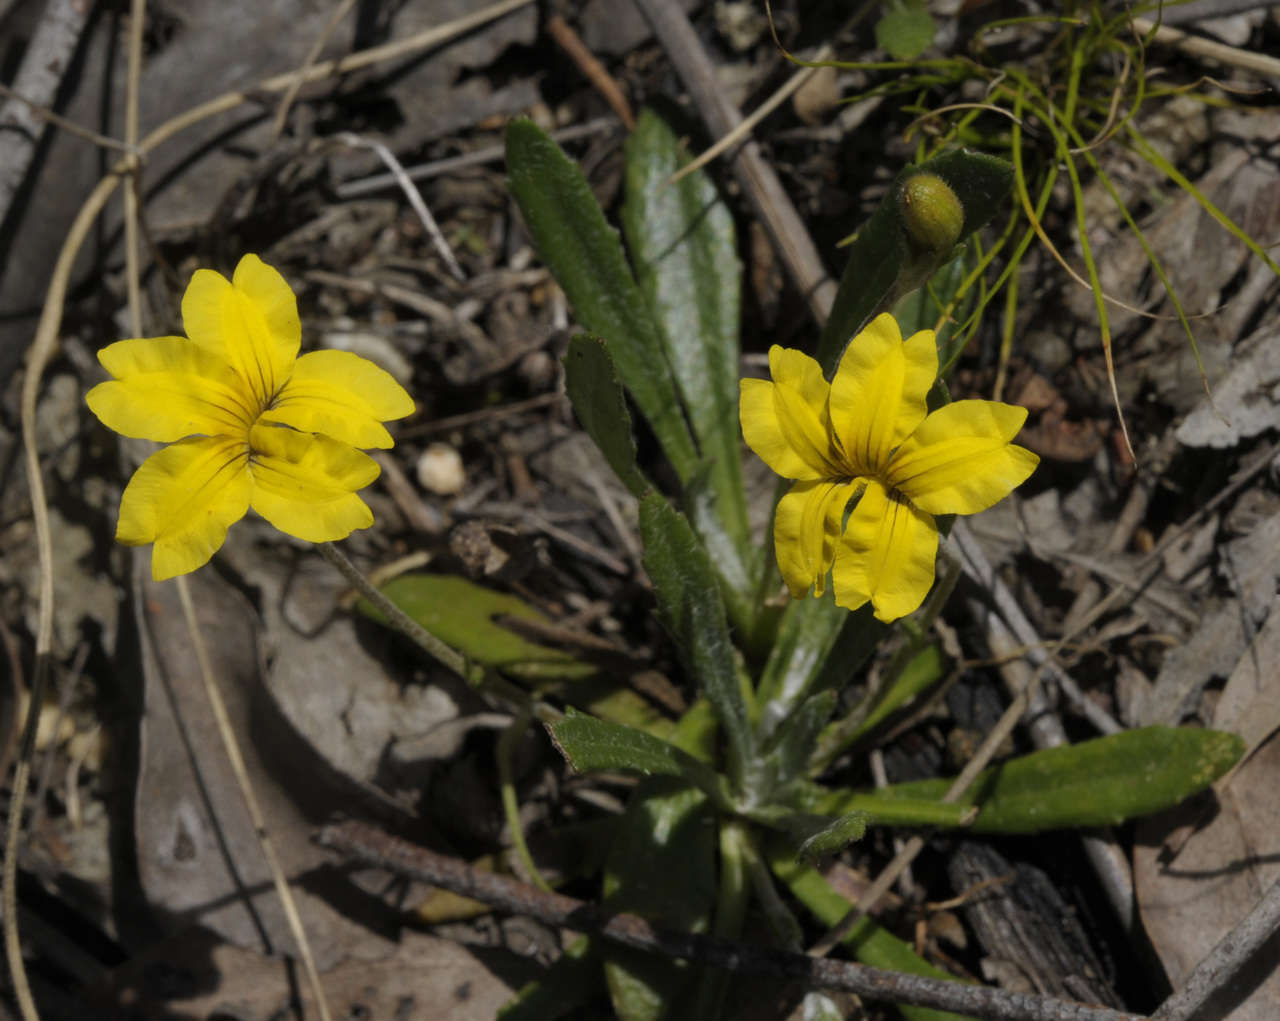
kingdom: Plantae
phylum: Tracheophyta
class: Magnoliopsida
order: Asterales
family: Goodeniaceae
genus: Goodenia
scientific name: Goodenia geniculata
